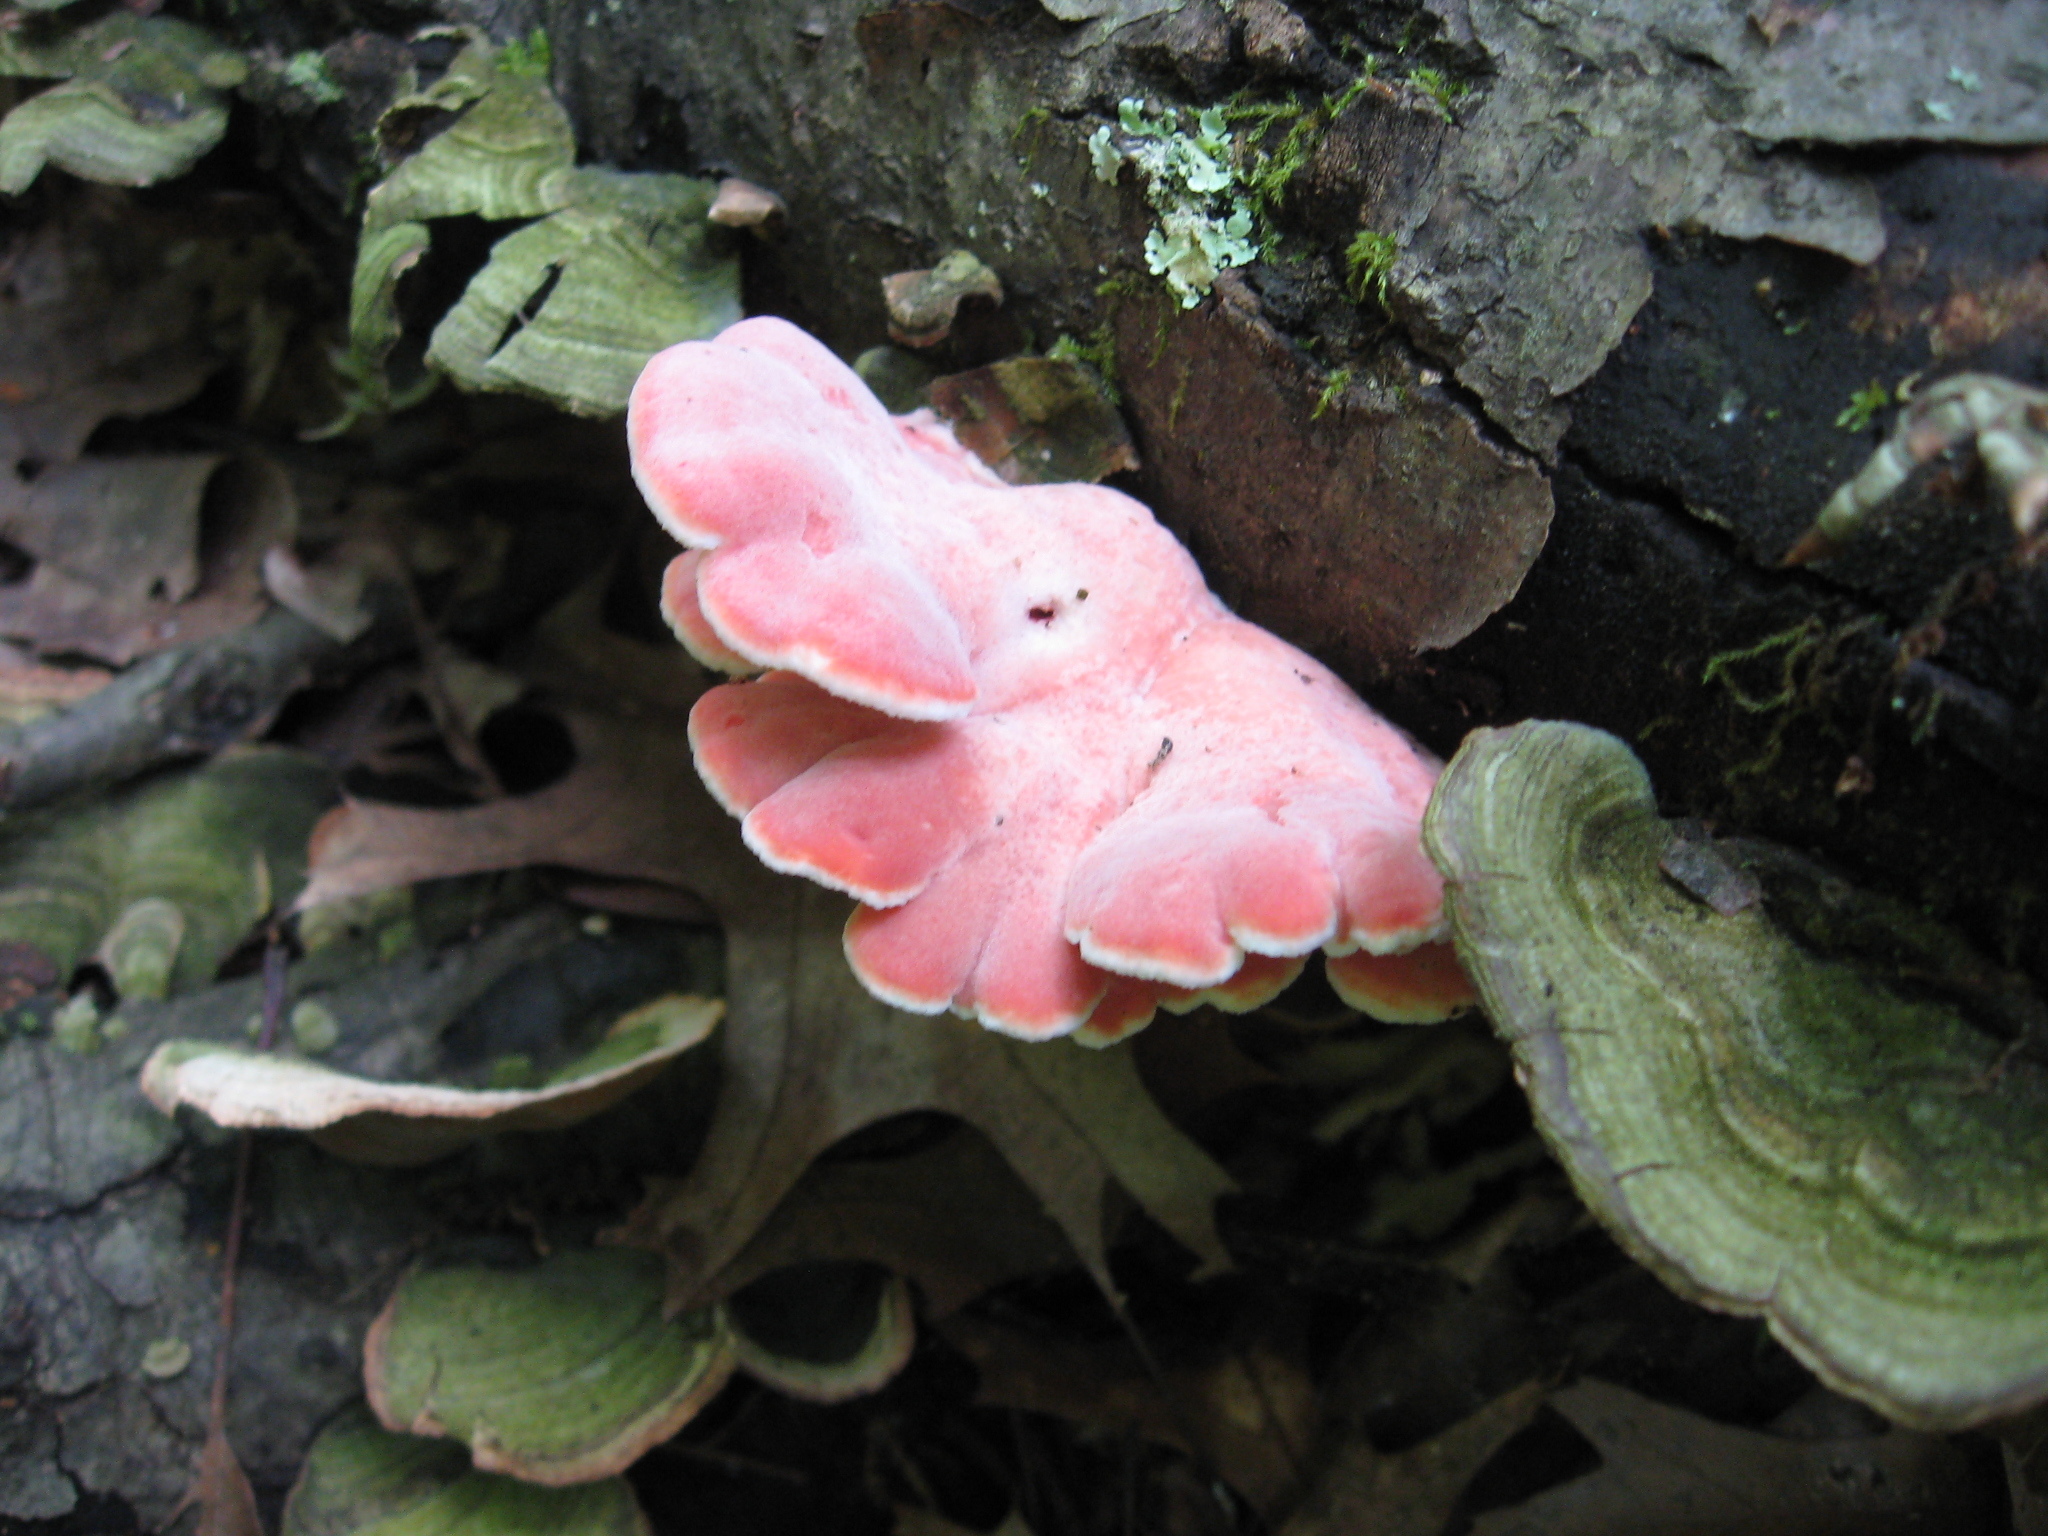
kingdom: Fungi
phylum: Basidiomycota
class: Agaricomycetes
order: Polyporales
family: Irpicaceae
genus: Byssomerulius
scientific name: Byssomerulius incarnatus
